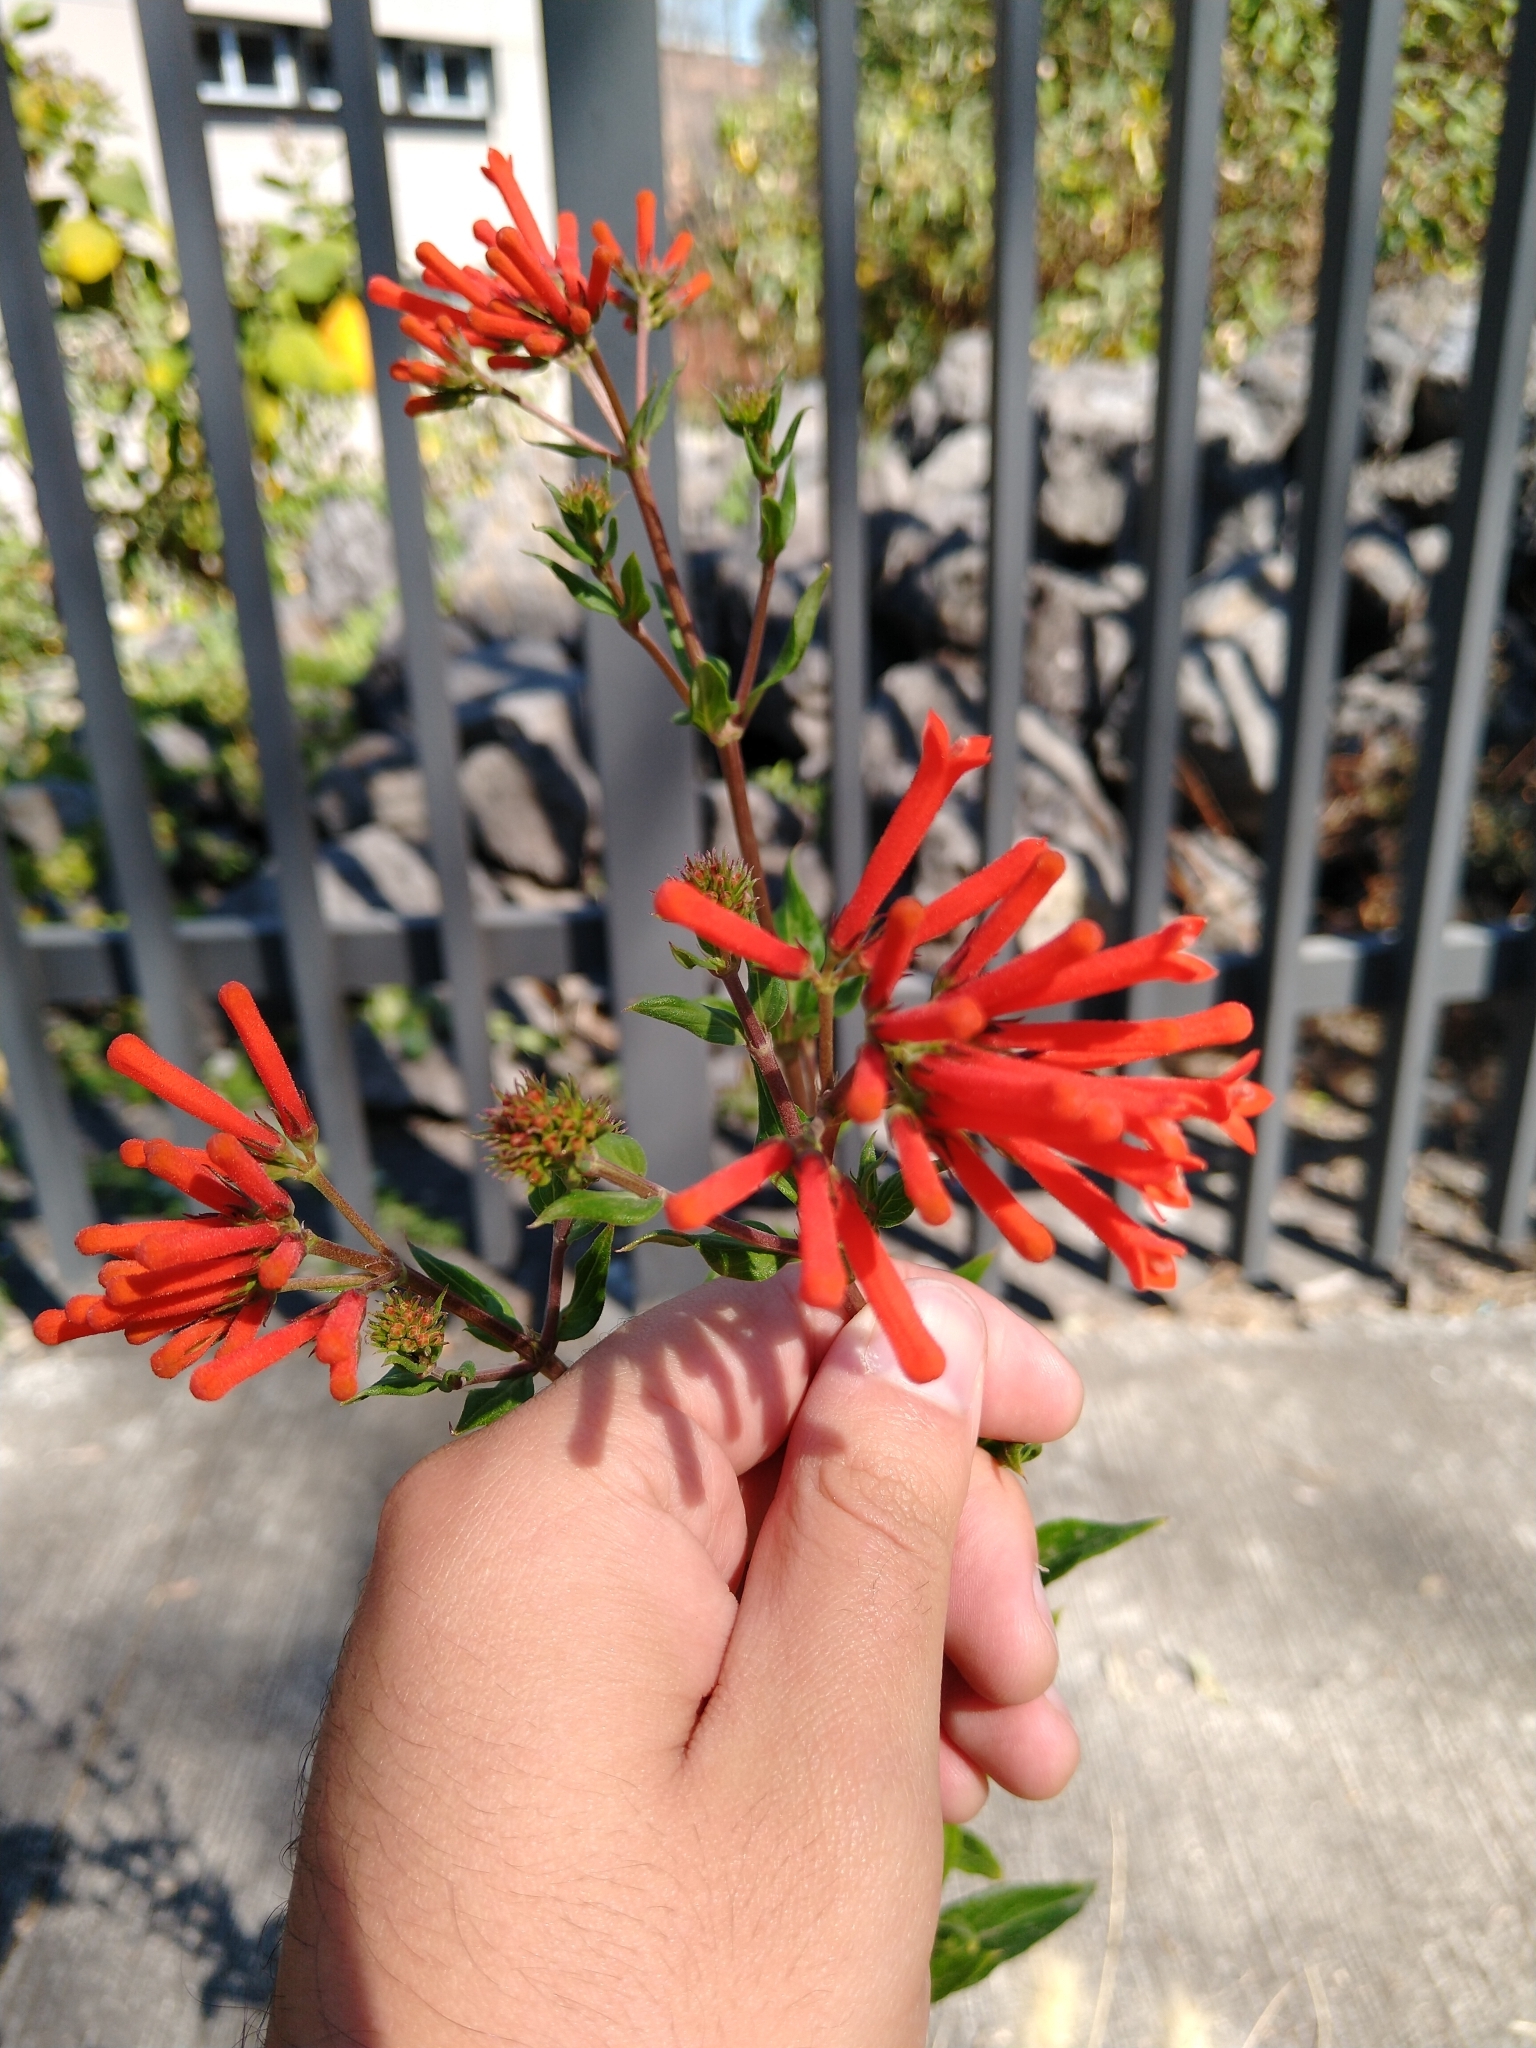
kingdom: Plantae
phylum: Tracheophyta
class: Magnoliopsida
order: Gentianales
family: Rubiaceae
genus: Bouvardia
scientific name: Bouvardia ternifolia
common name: Scarlet bouvardia
